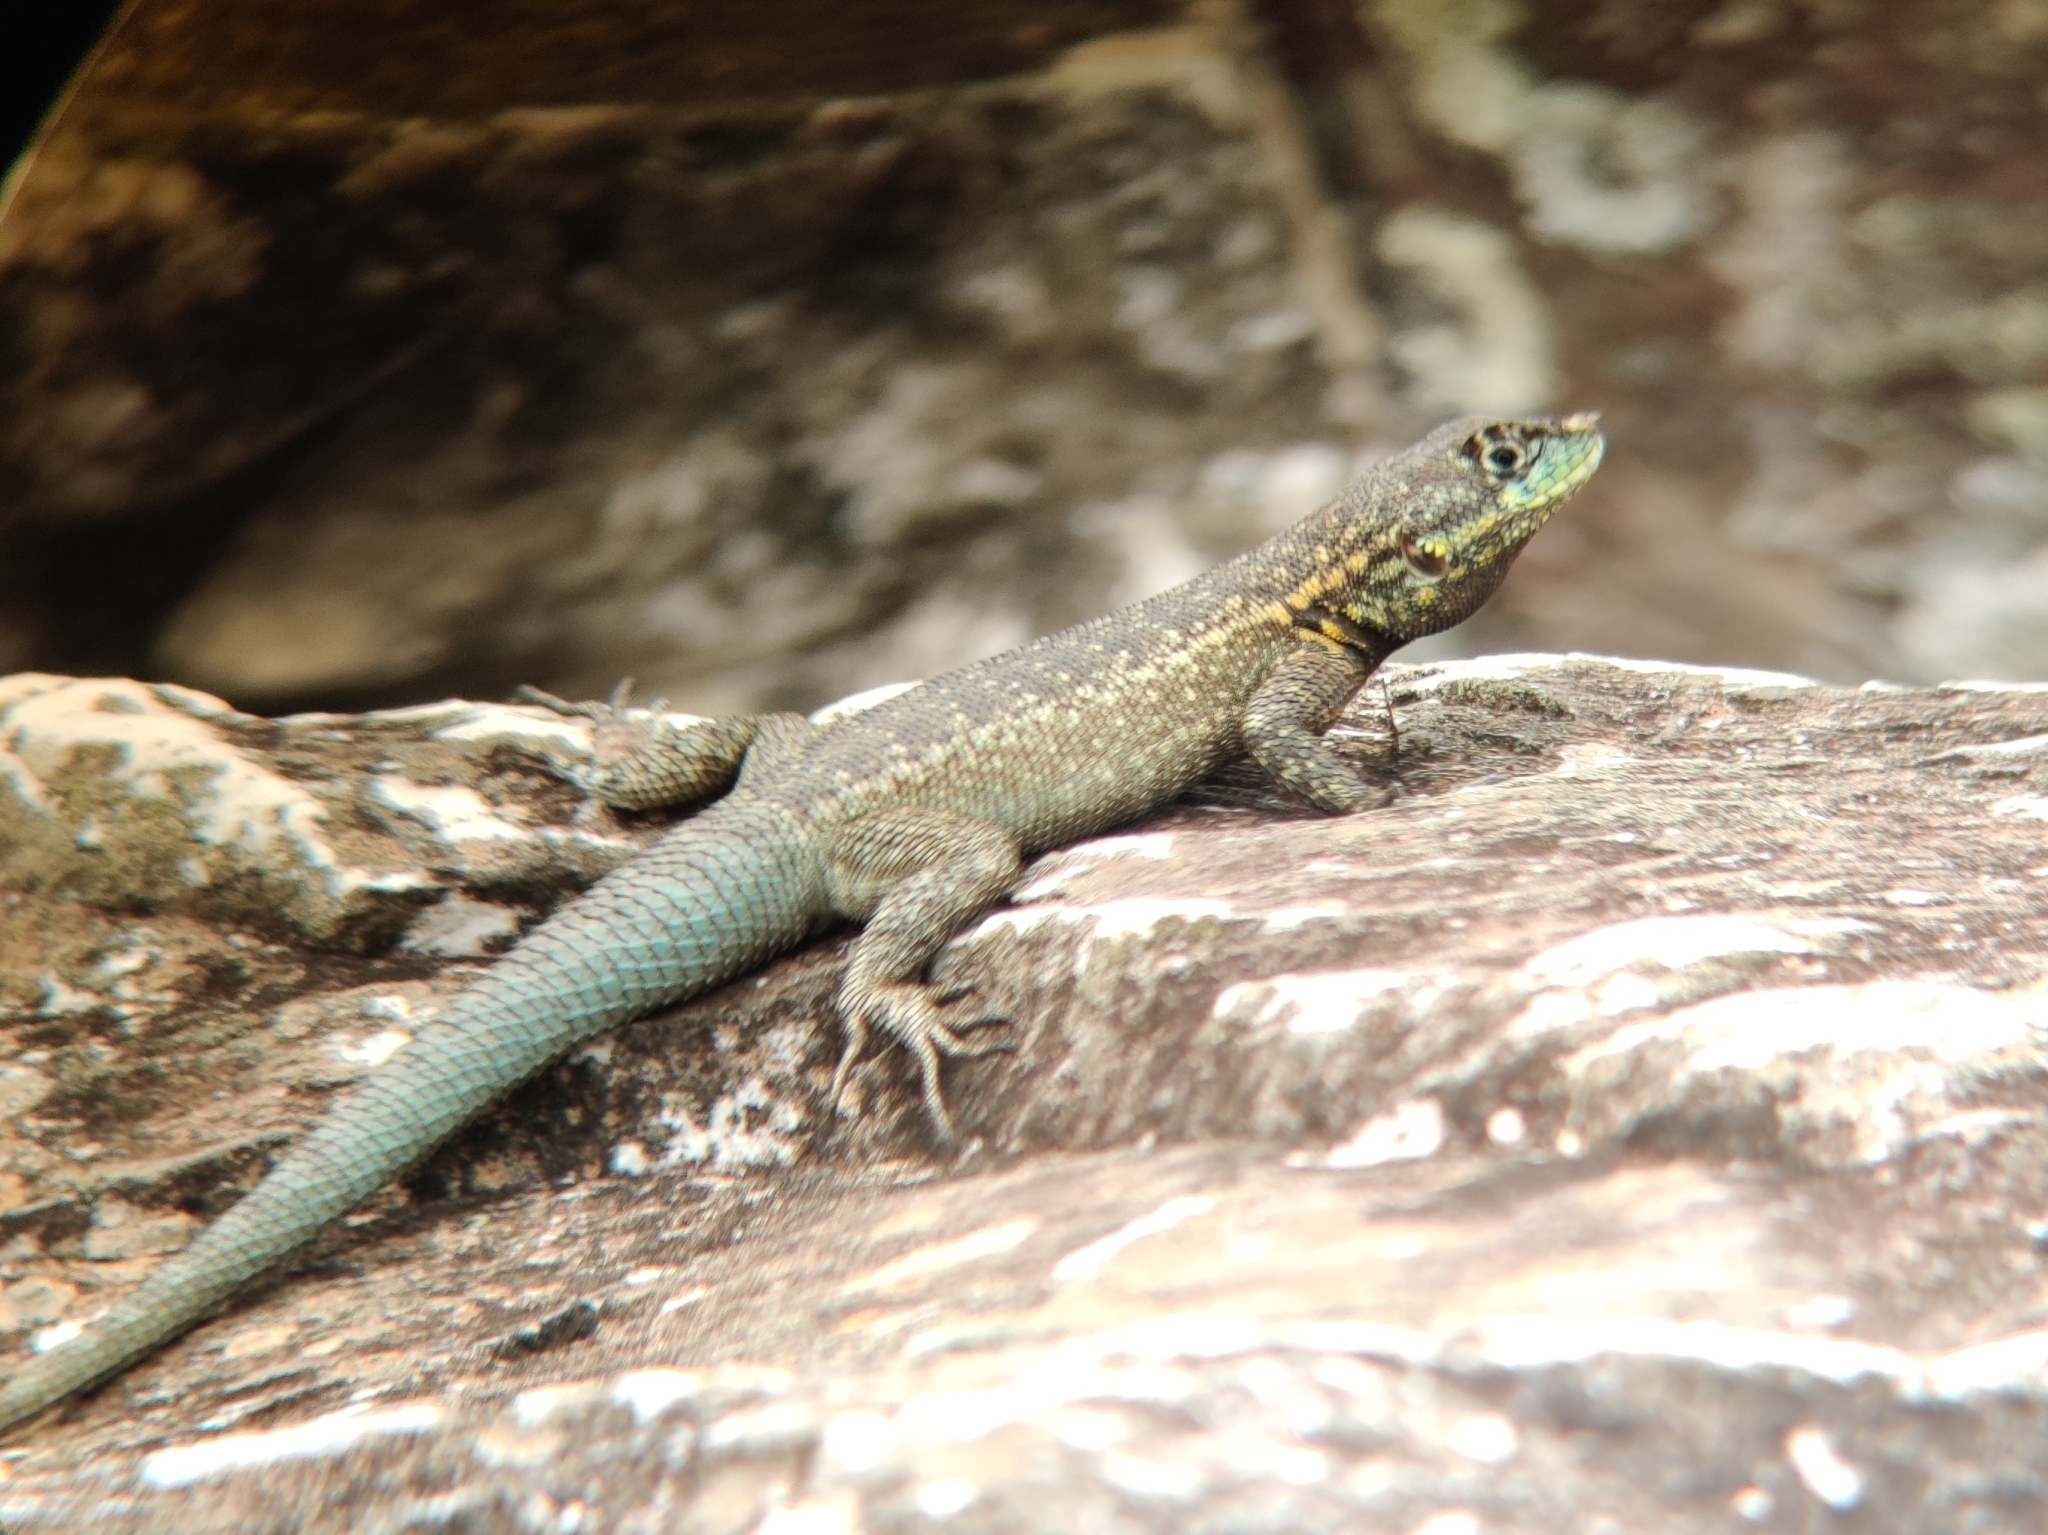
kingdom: Animalia
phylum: Chordata
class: Squamata
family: Tropiduridae
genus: Tropidurus
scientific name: Tropidurus itambere
